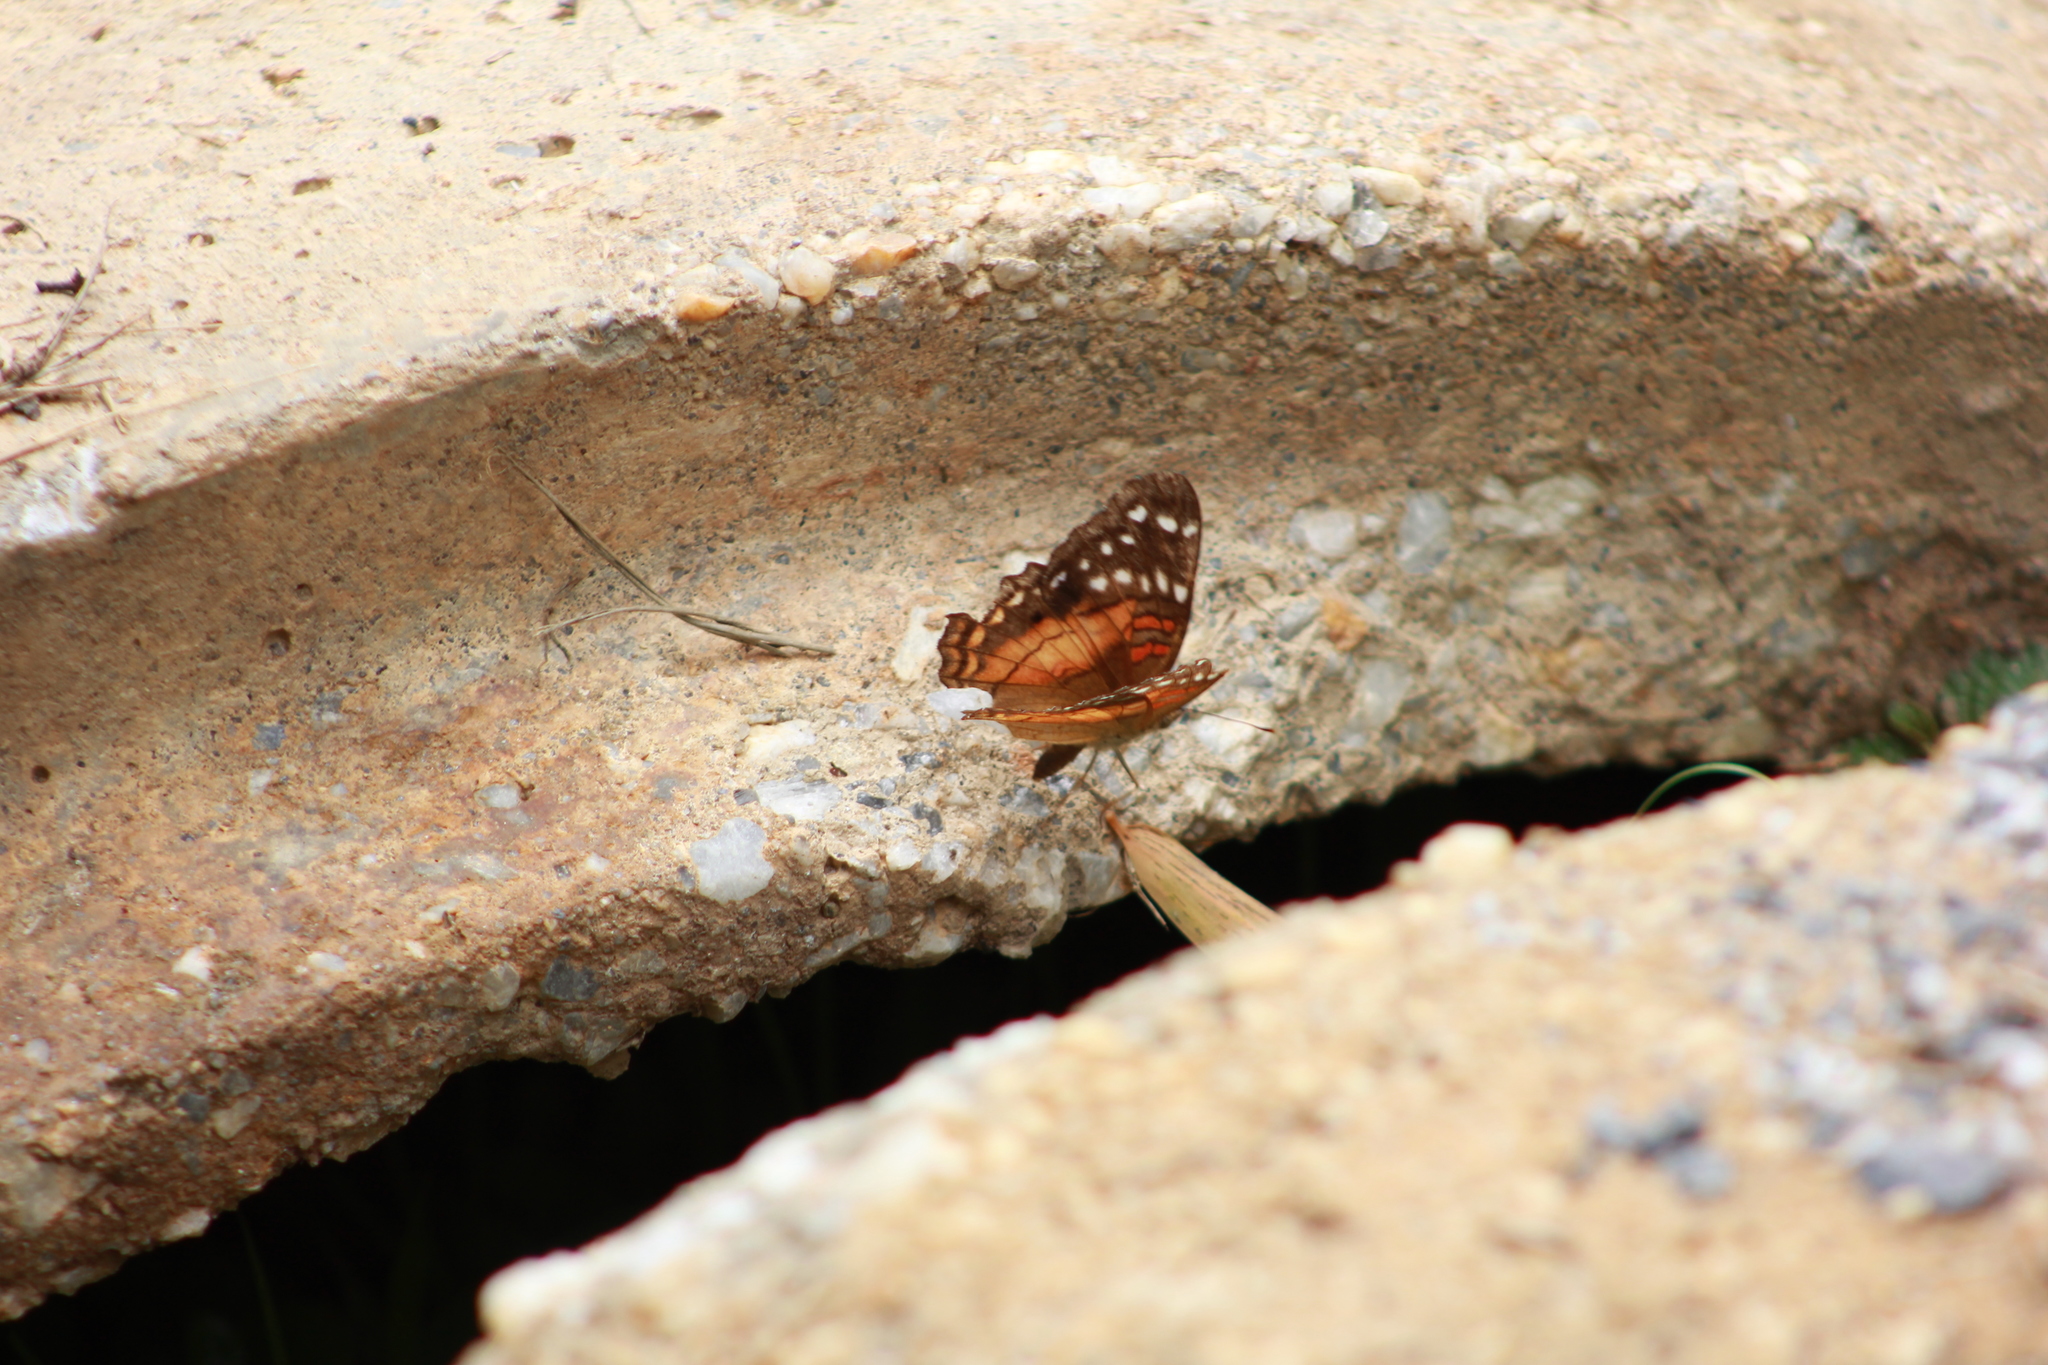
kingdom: Animalia
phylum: Arthropoda
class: Insecta
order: Lepidoptera
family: Nymphalidae
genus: Anartia
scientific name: Anartia amathea
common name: Red peacock
